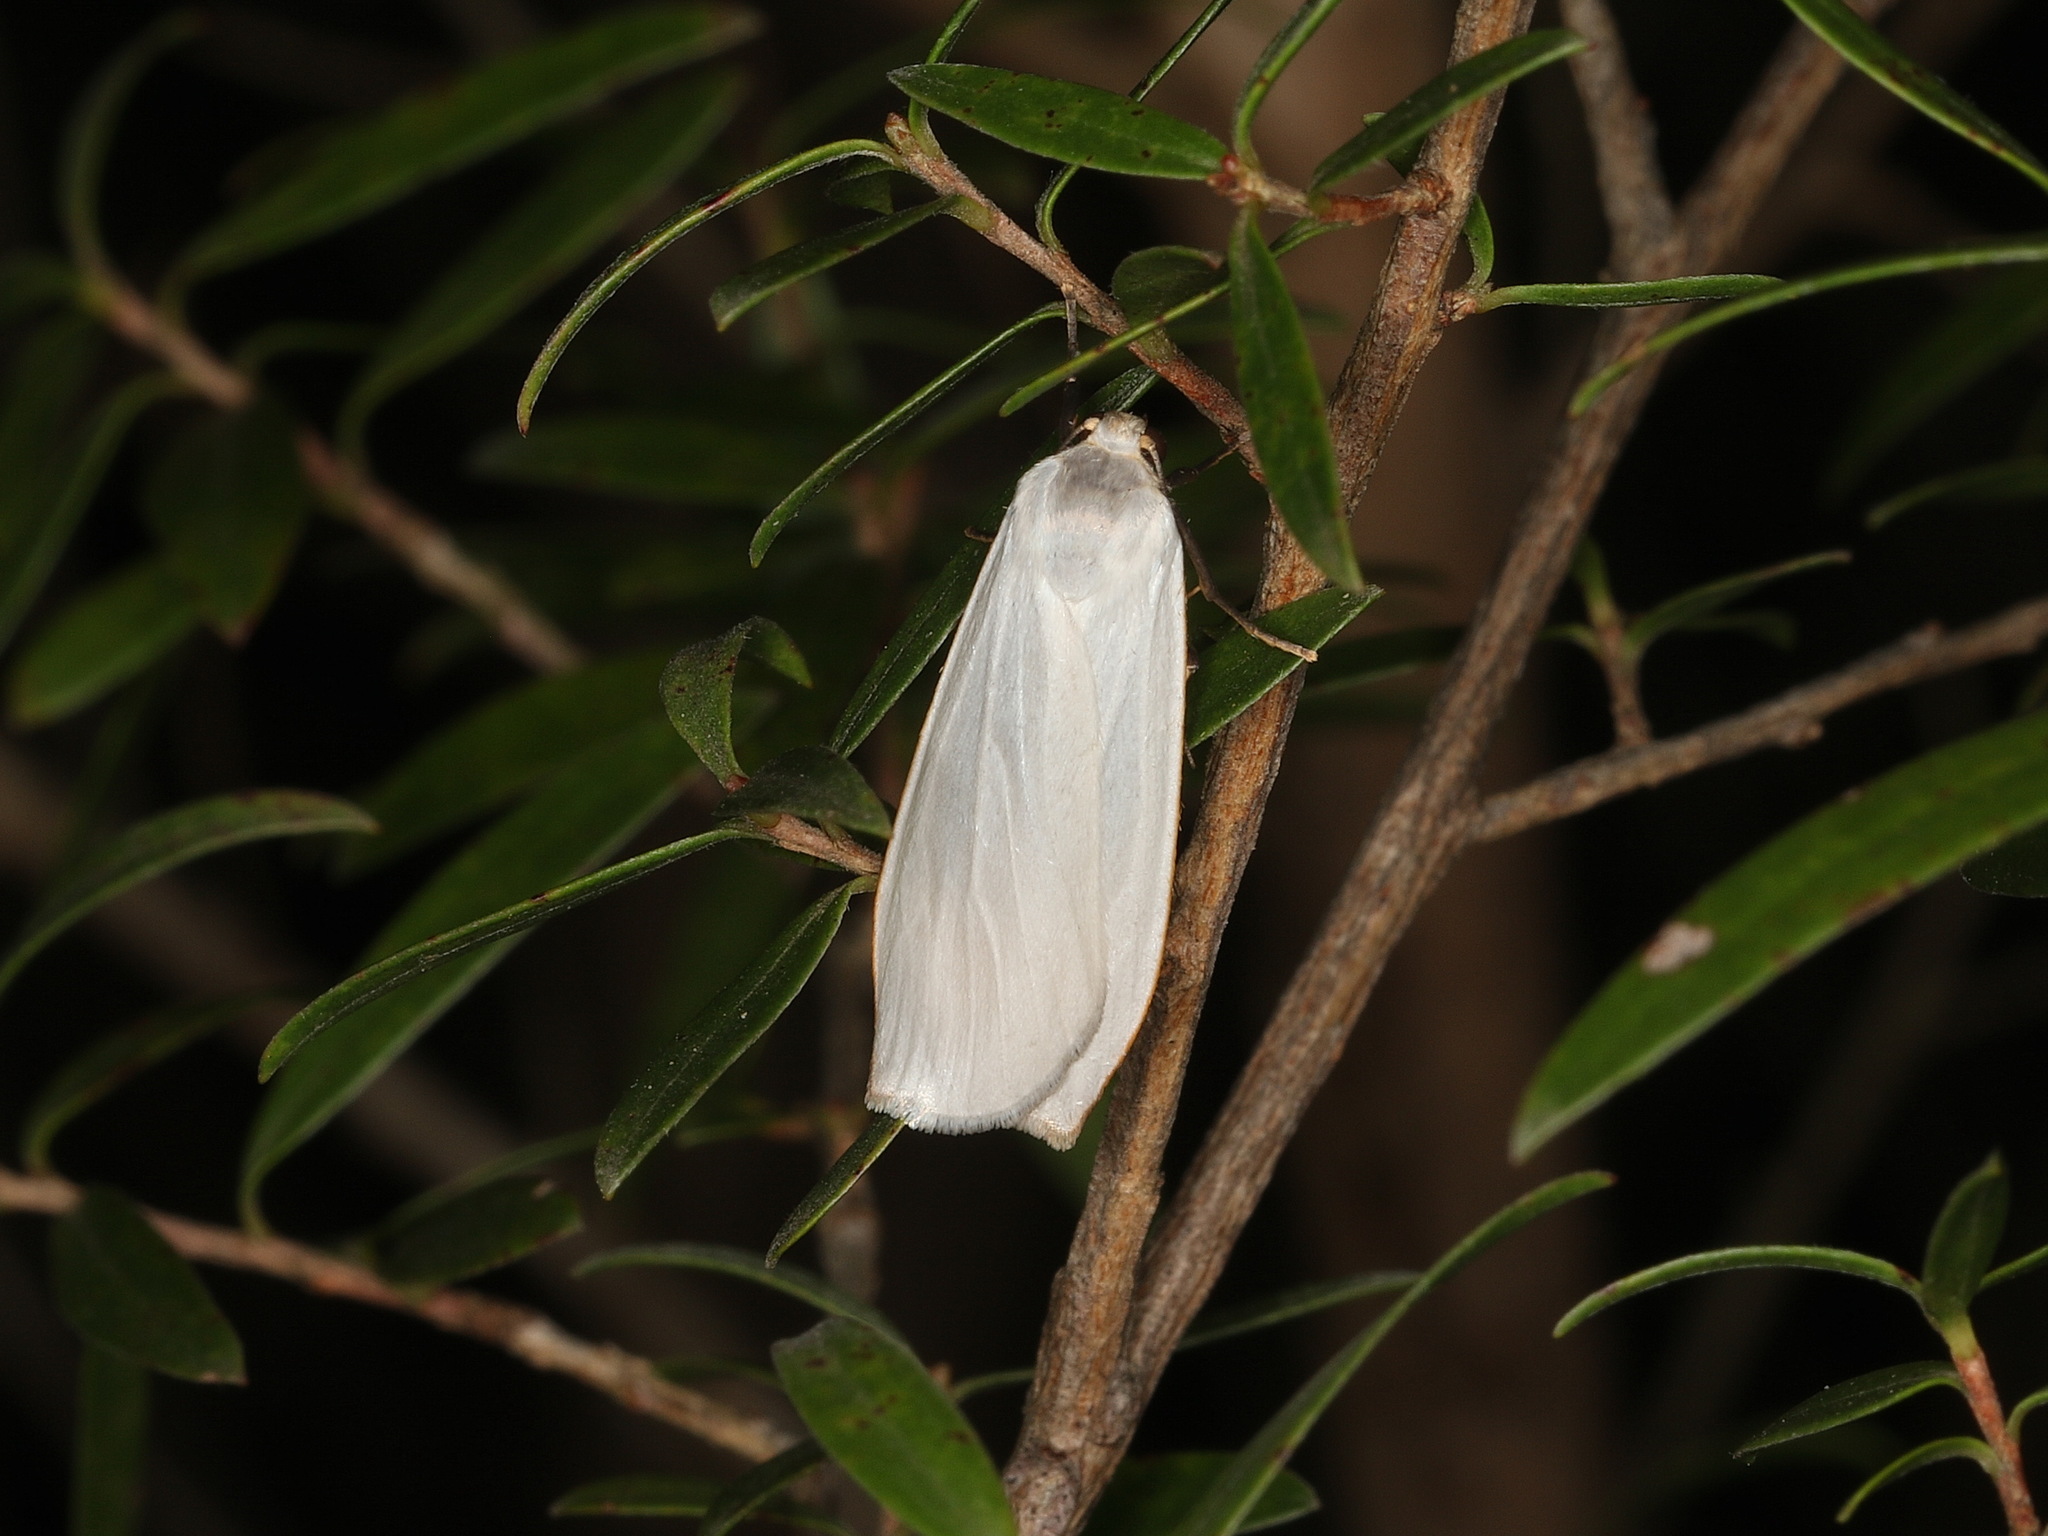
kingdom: Animalia
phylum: Arthropoda
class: Insecta
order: Lepidoptera
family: Erebidae
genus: Hesychopa
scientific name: Hesychopa chionora
